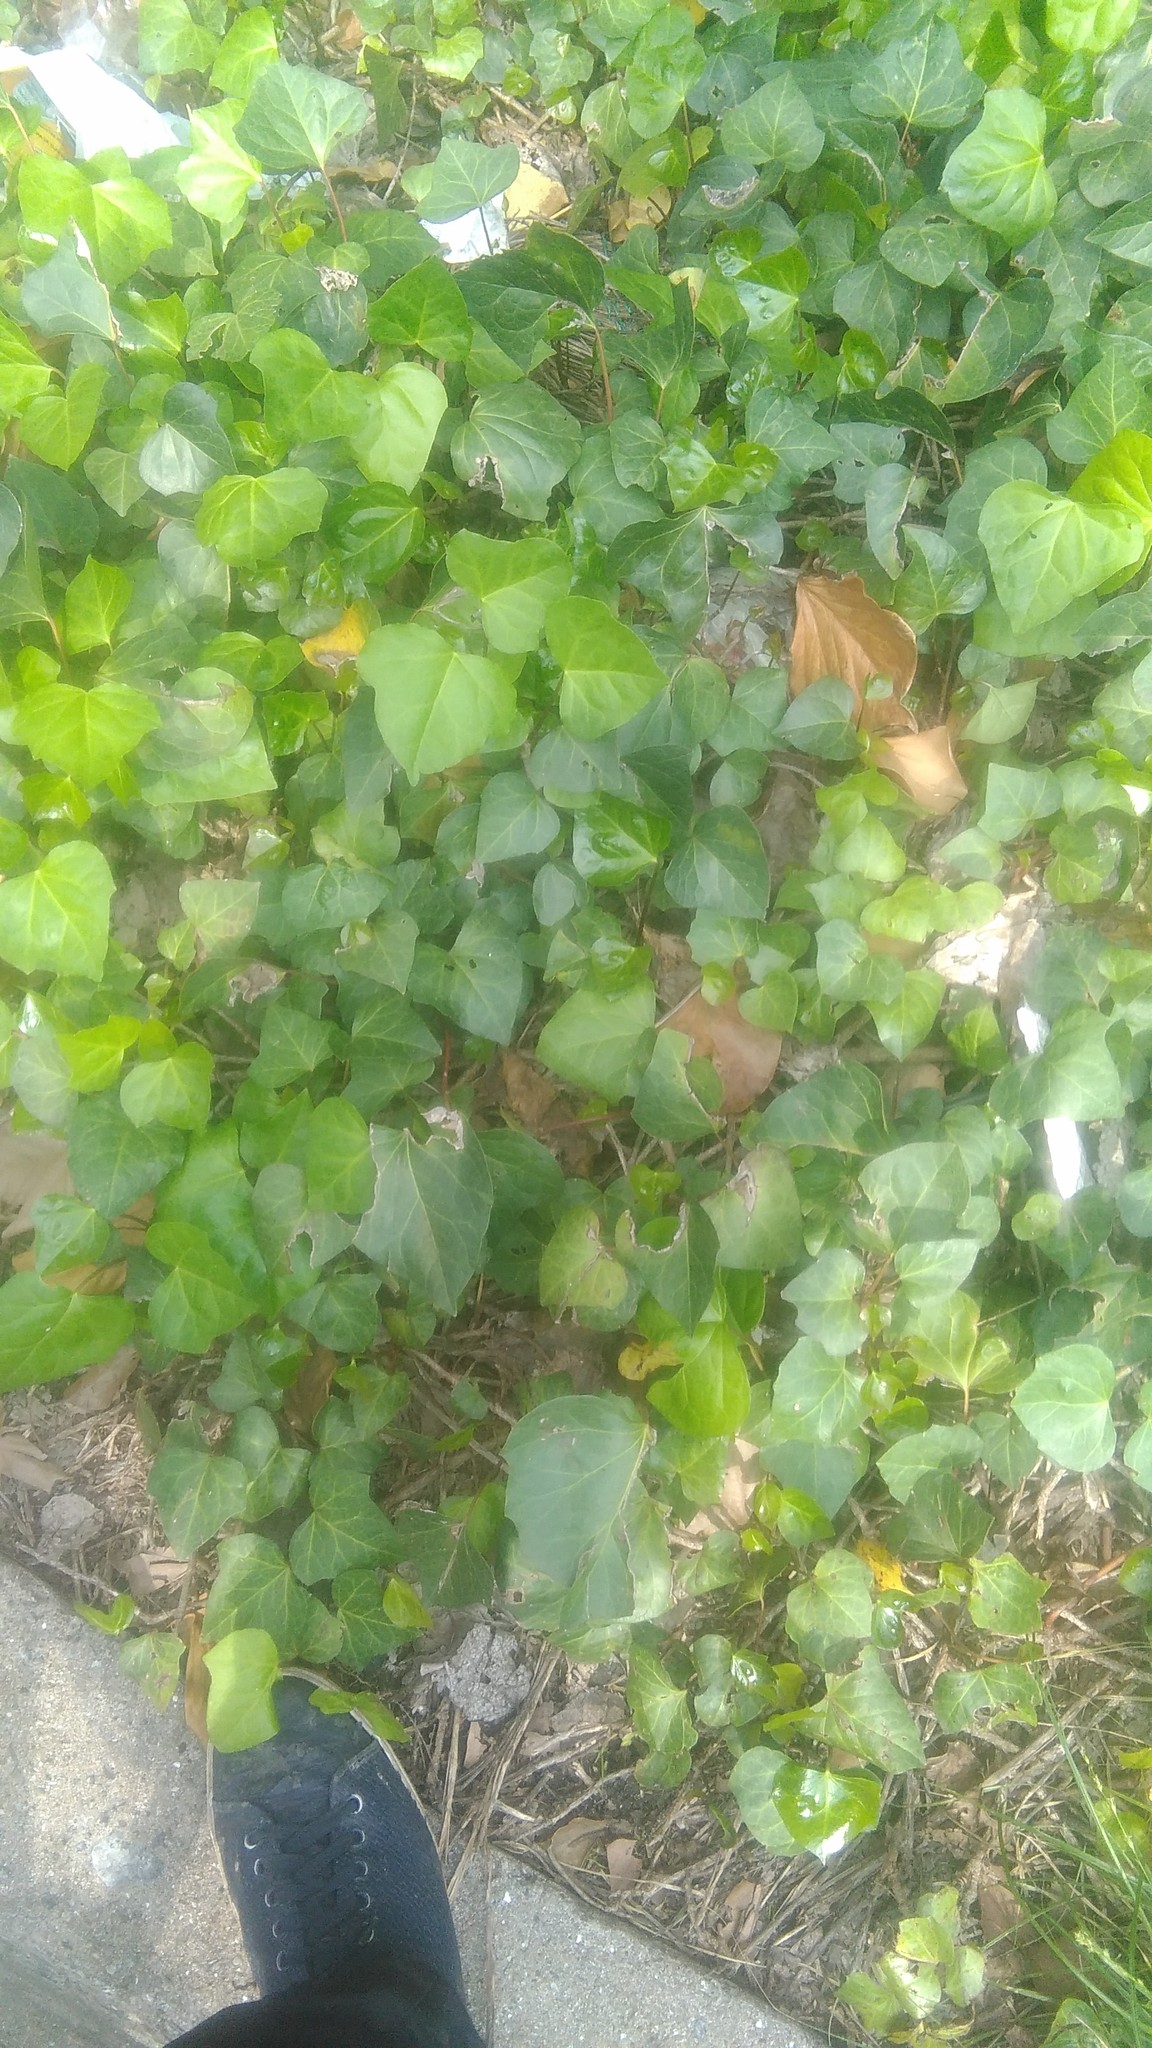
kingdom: Plantae
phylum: Tracheophyta
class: Magnoliopsida
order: Apiales
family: Araliaceae
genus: Hedera
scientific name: Hedera helix
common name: Ivy
